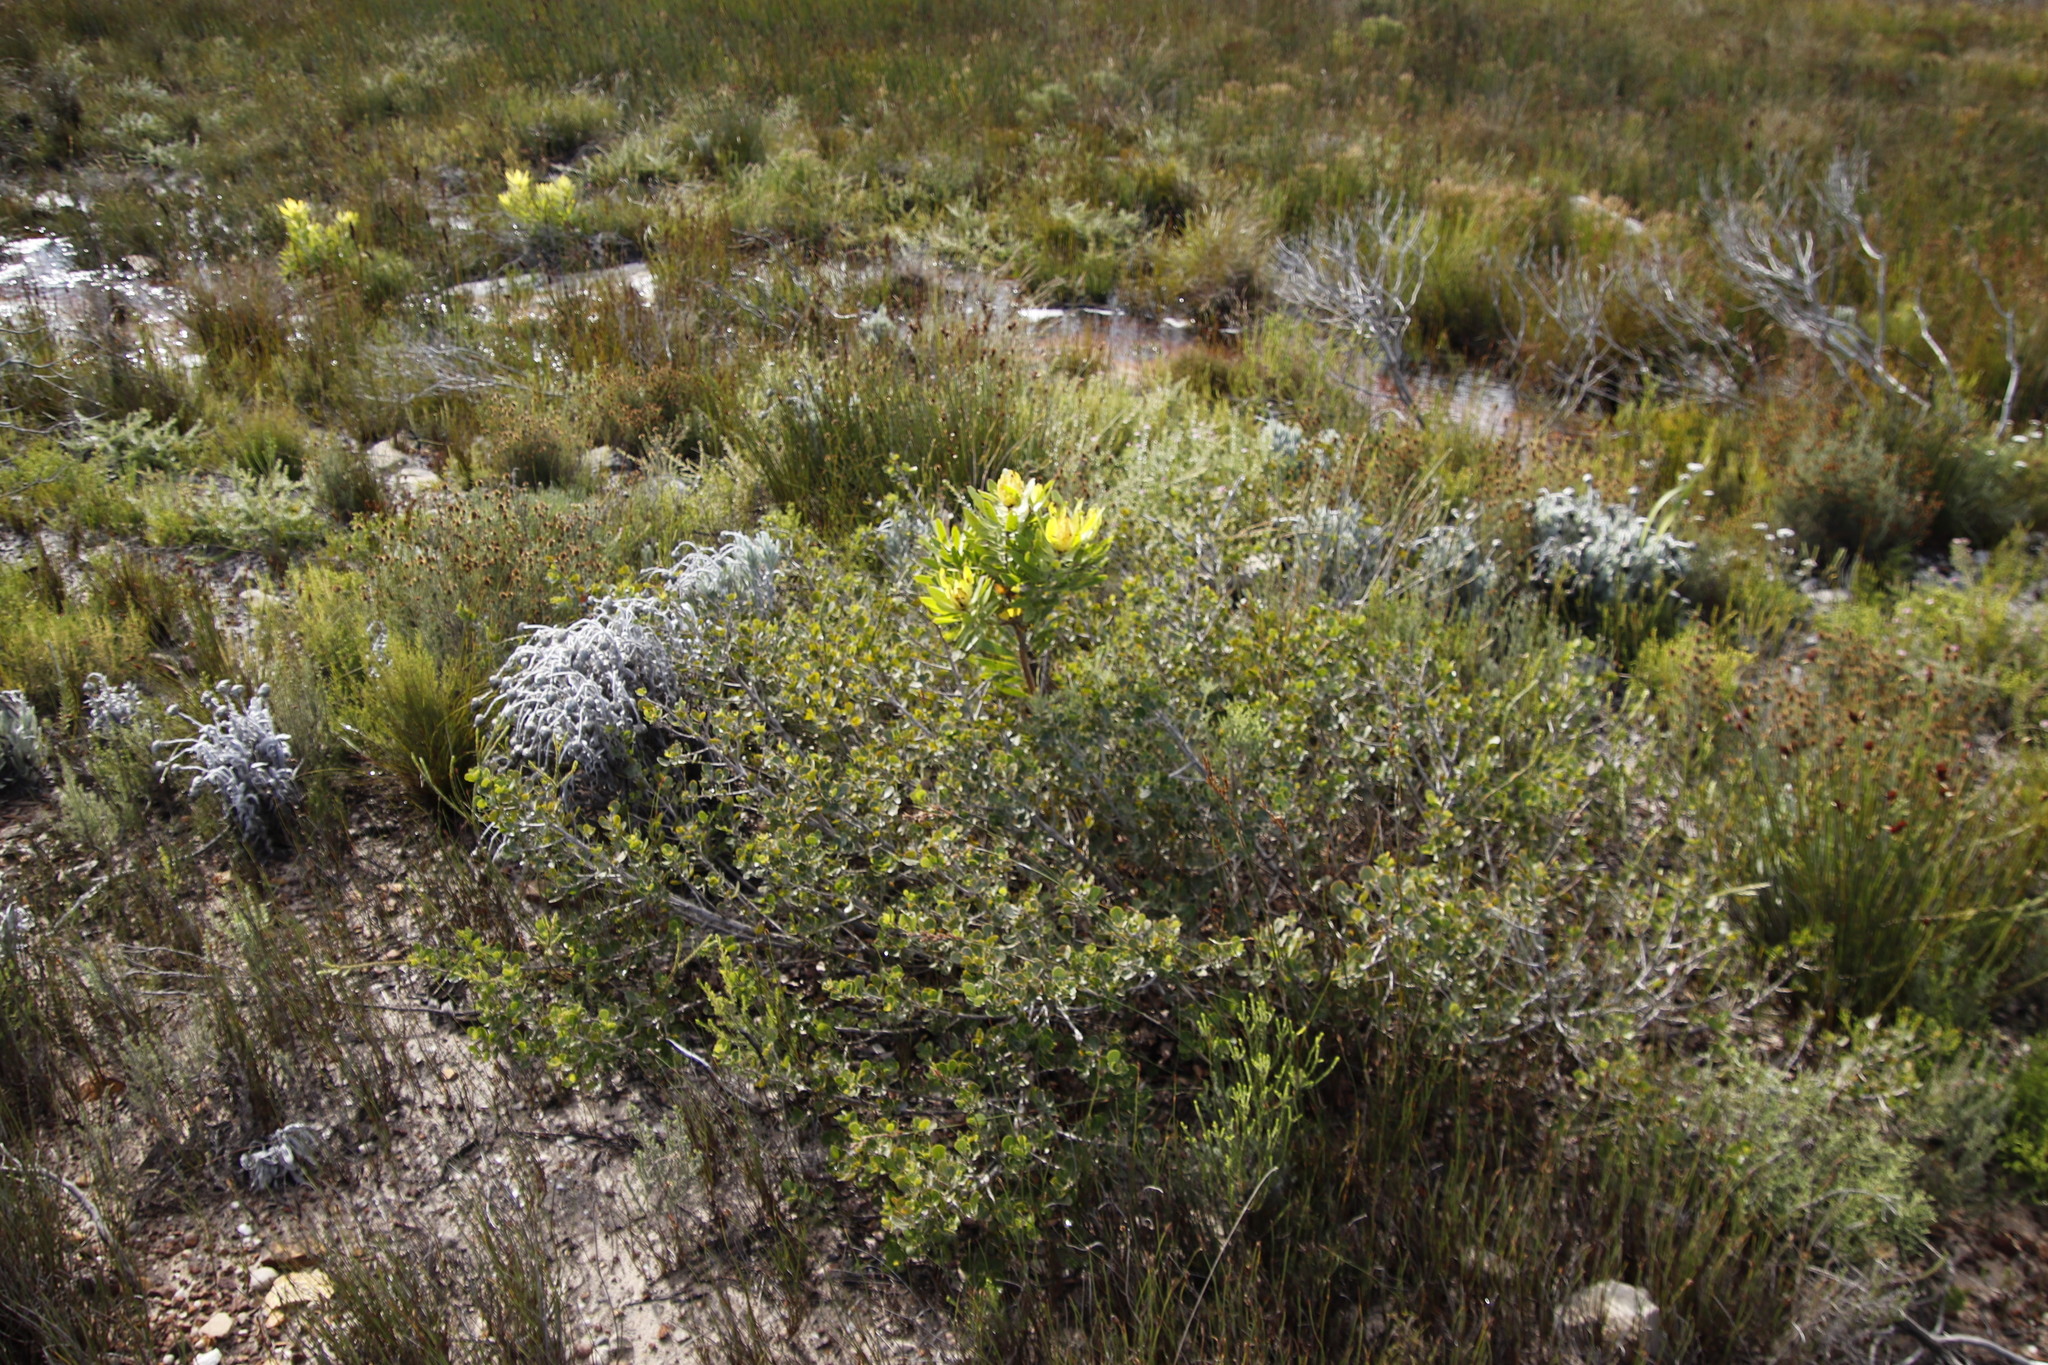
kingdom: Plantae
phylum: Tracheophyta
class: Magnoliopsida
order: Proteales
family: Proteaceae
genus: Leucadendron
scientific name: Leucadendron laureolum
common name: Golden sunshinebush
